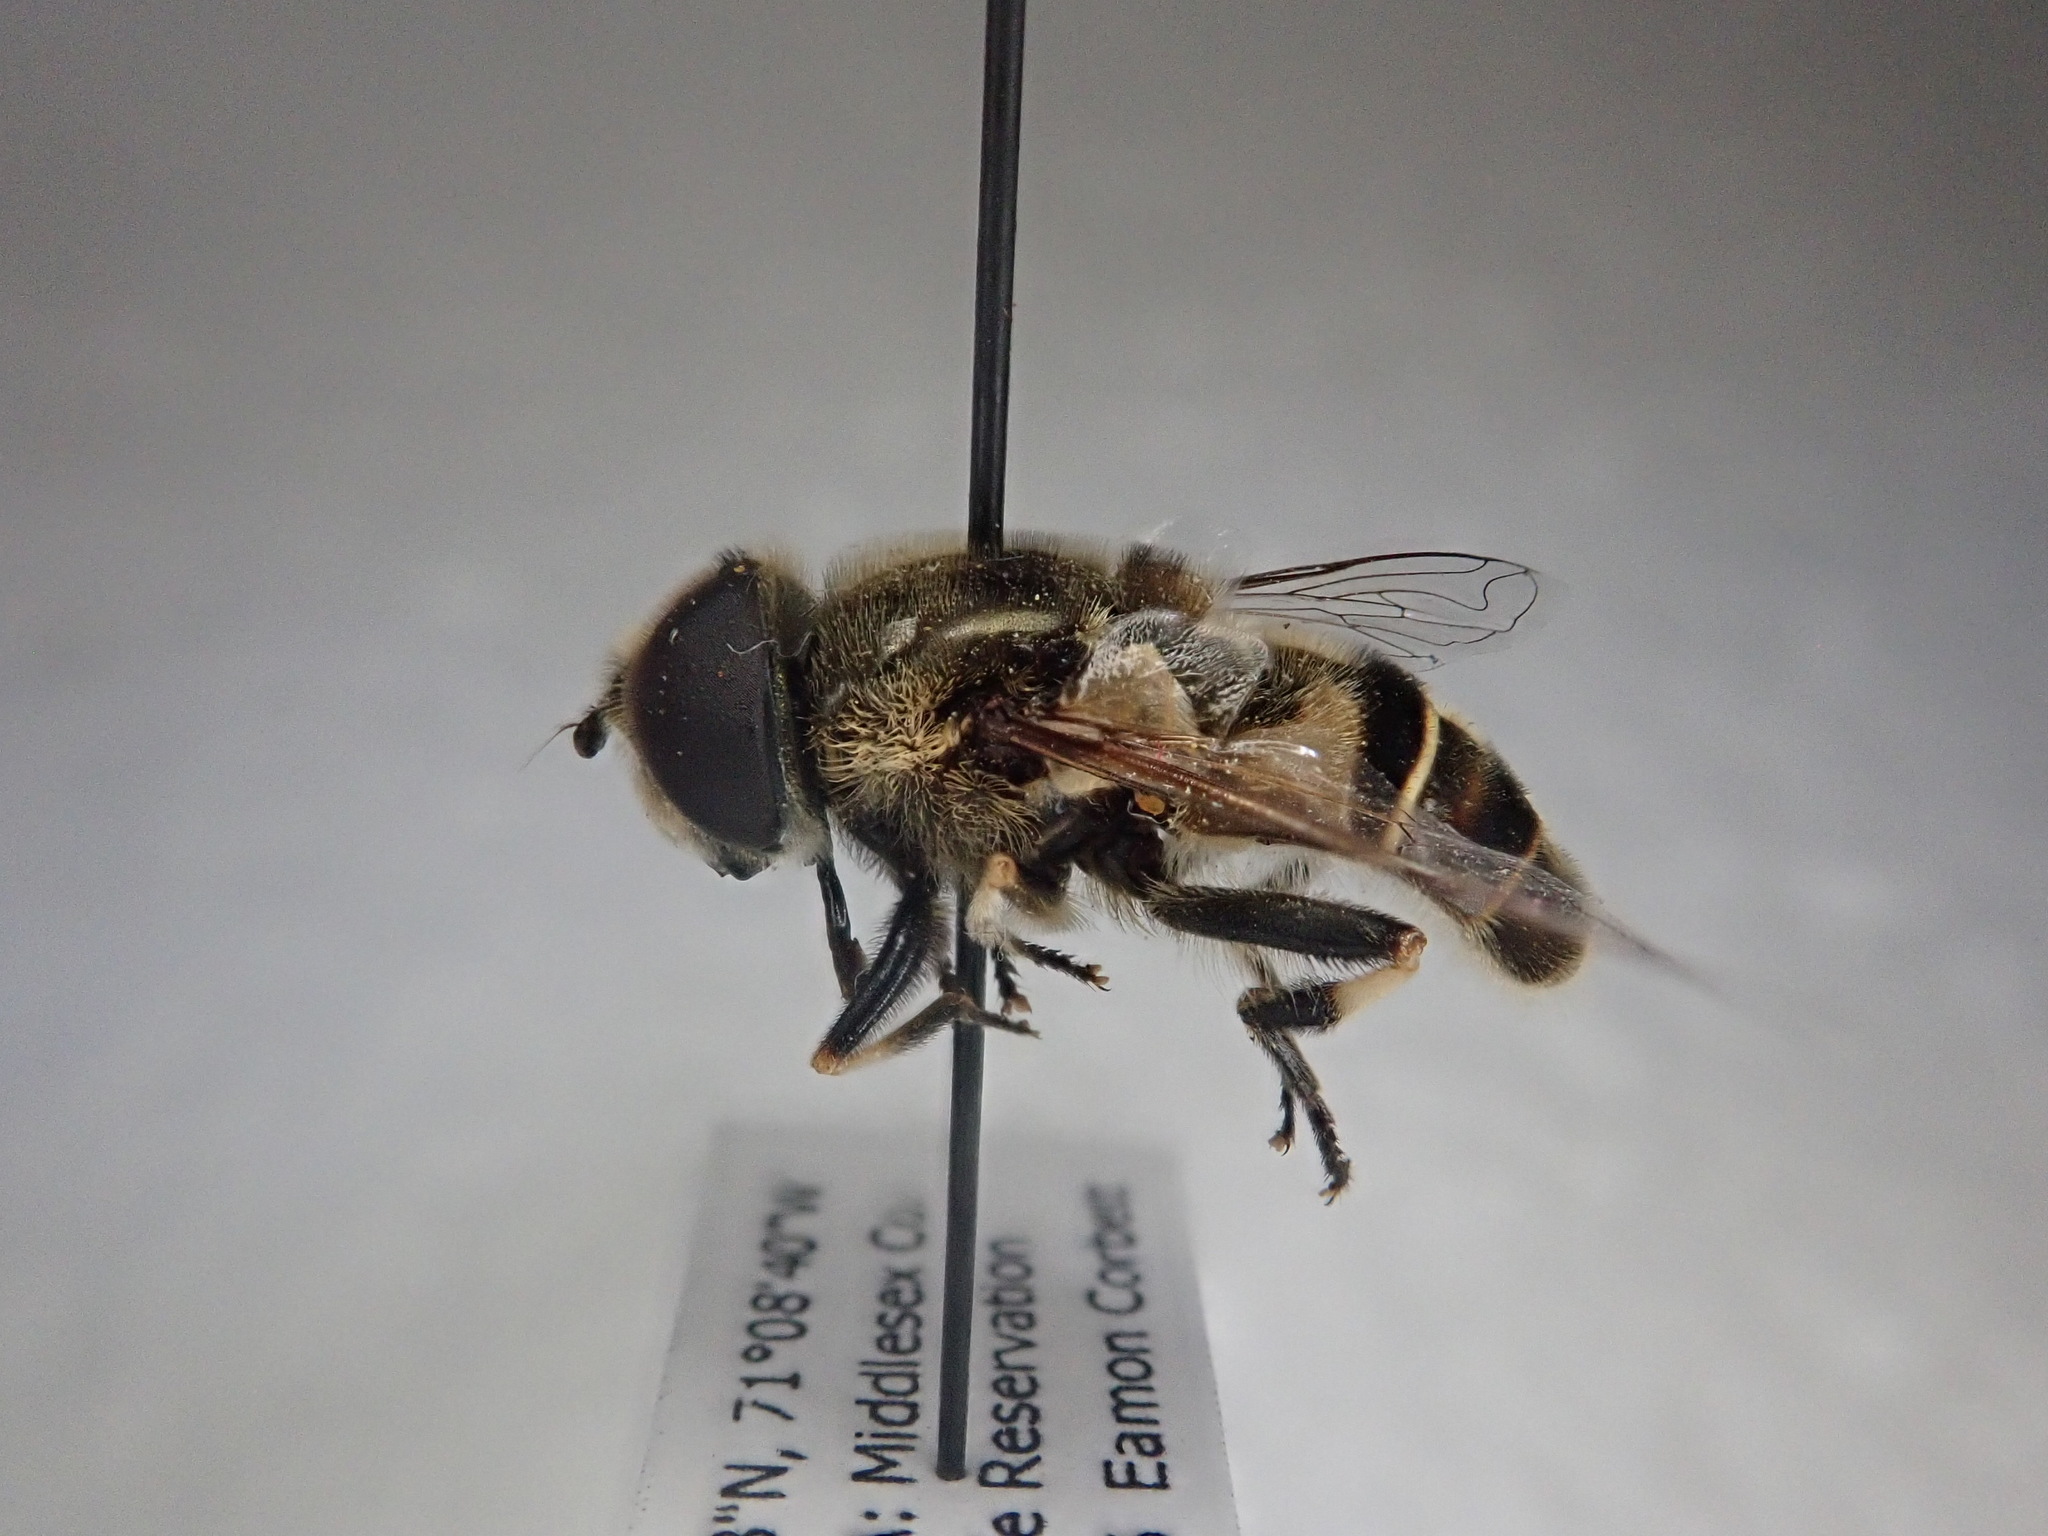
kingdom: Animalia
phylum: Arthropoda
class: Insecta
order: Diptera
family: Syrphidae
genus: Eristalis
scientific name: Eristalis dimidiata
